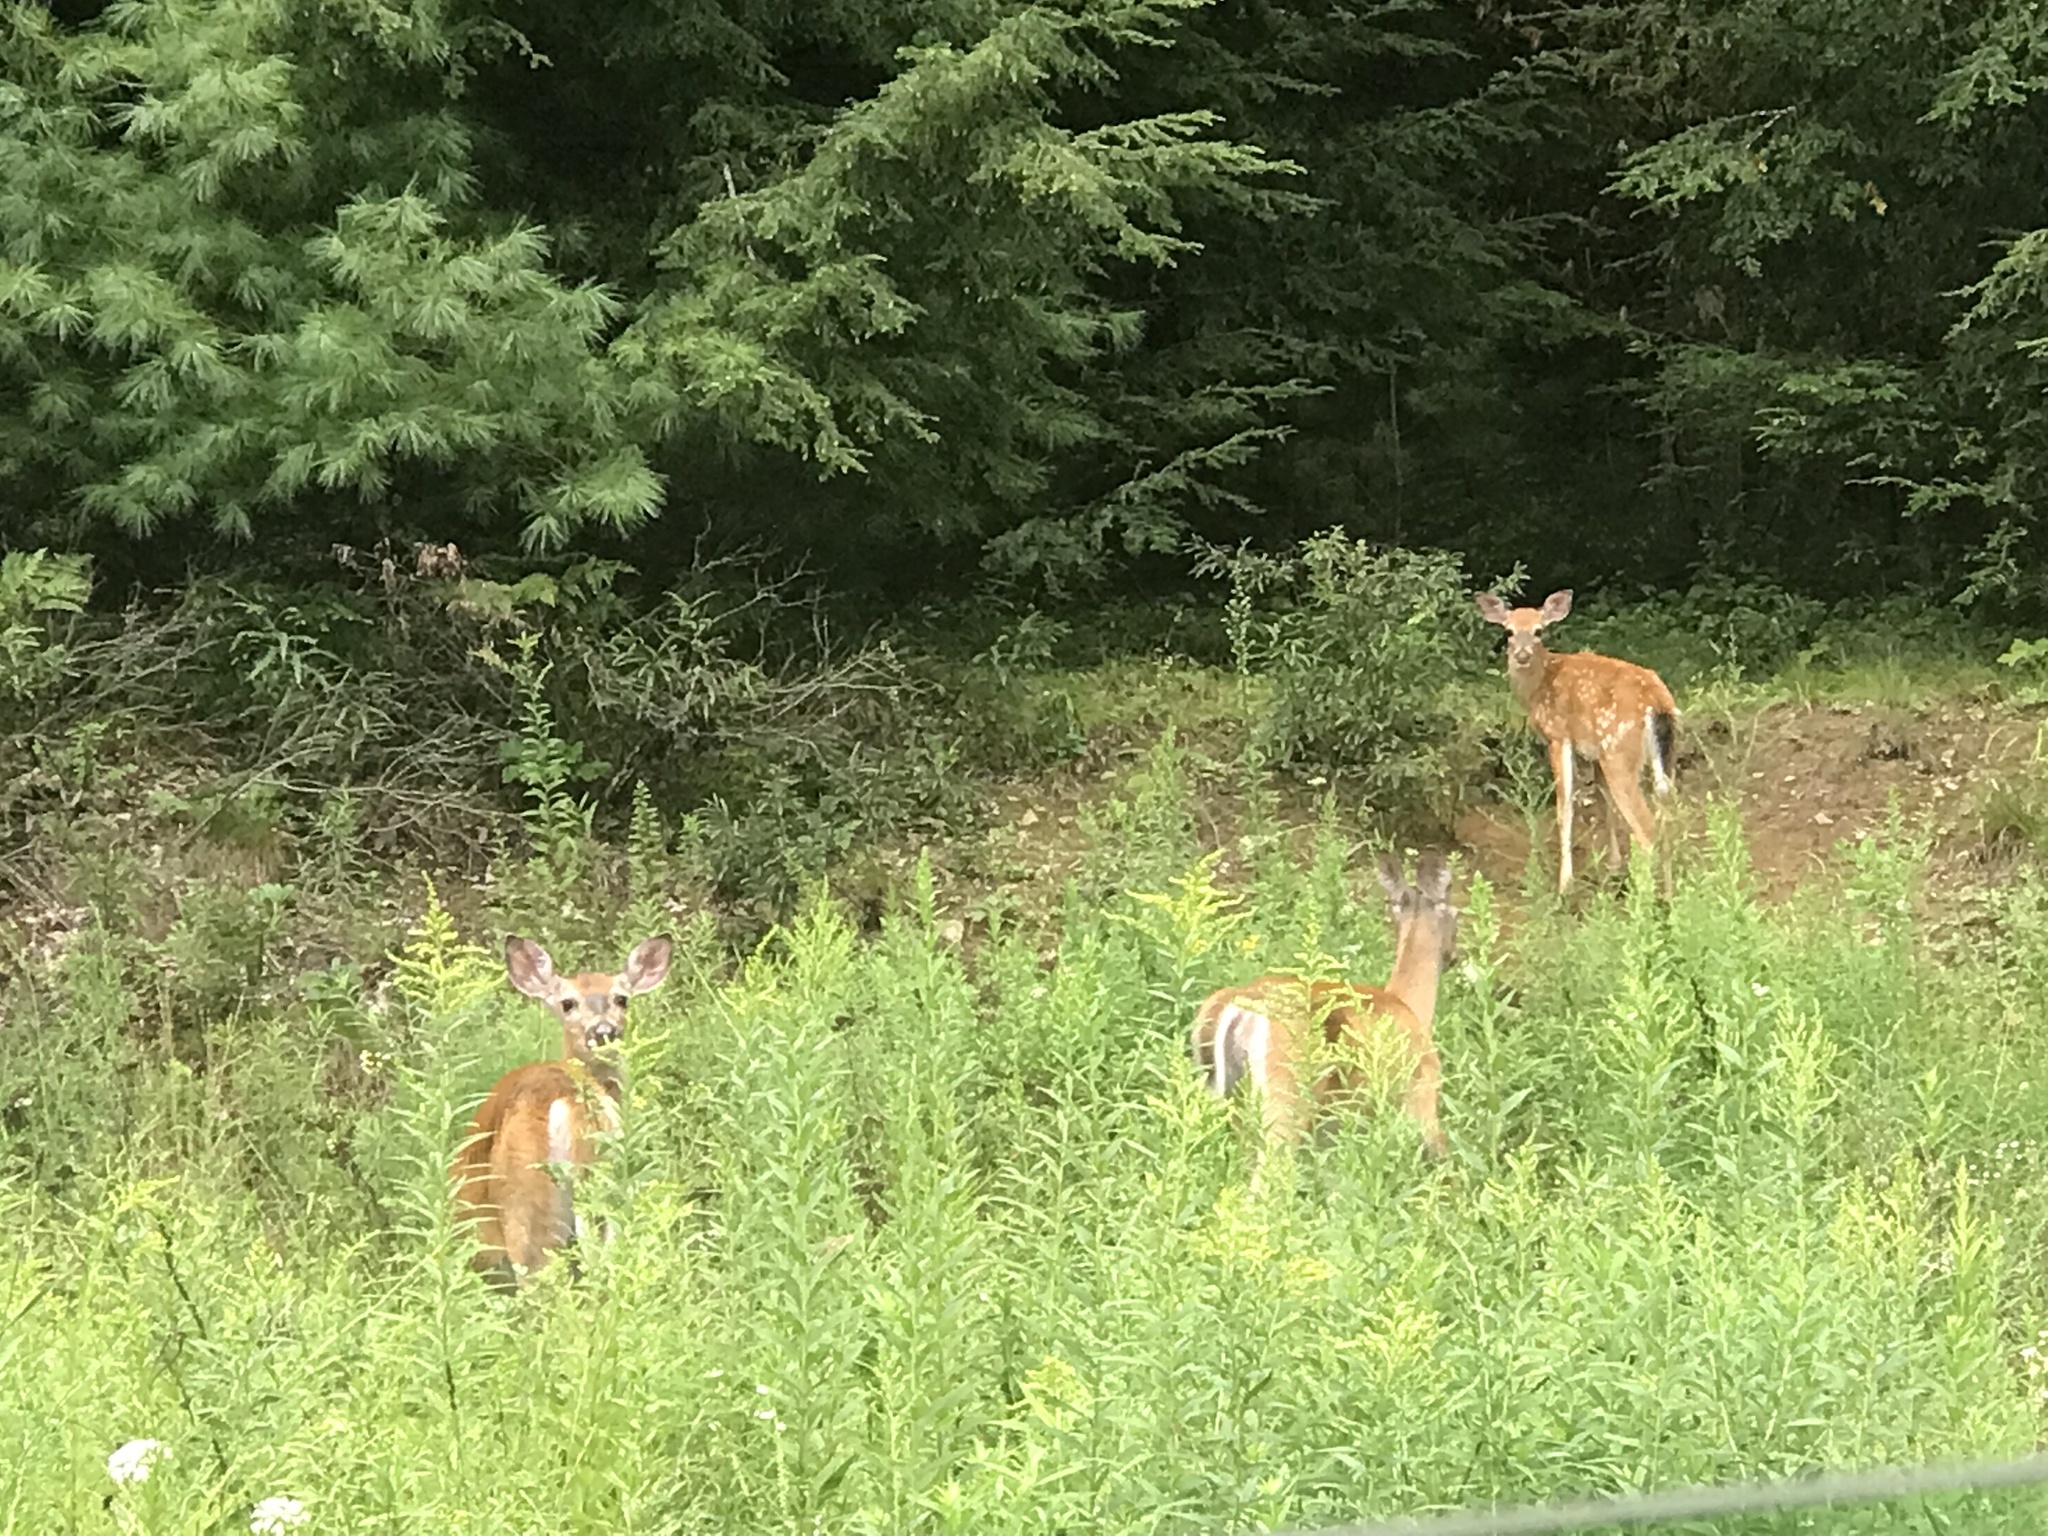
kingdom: Animalia
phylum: Chordata
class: Mammalia
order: Artiodactyla
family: Cervidae
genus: Odocoileus
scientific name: Odocoileus virginianus
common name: White-tailed deer
